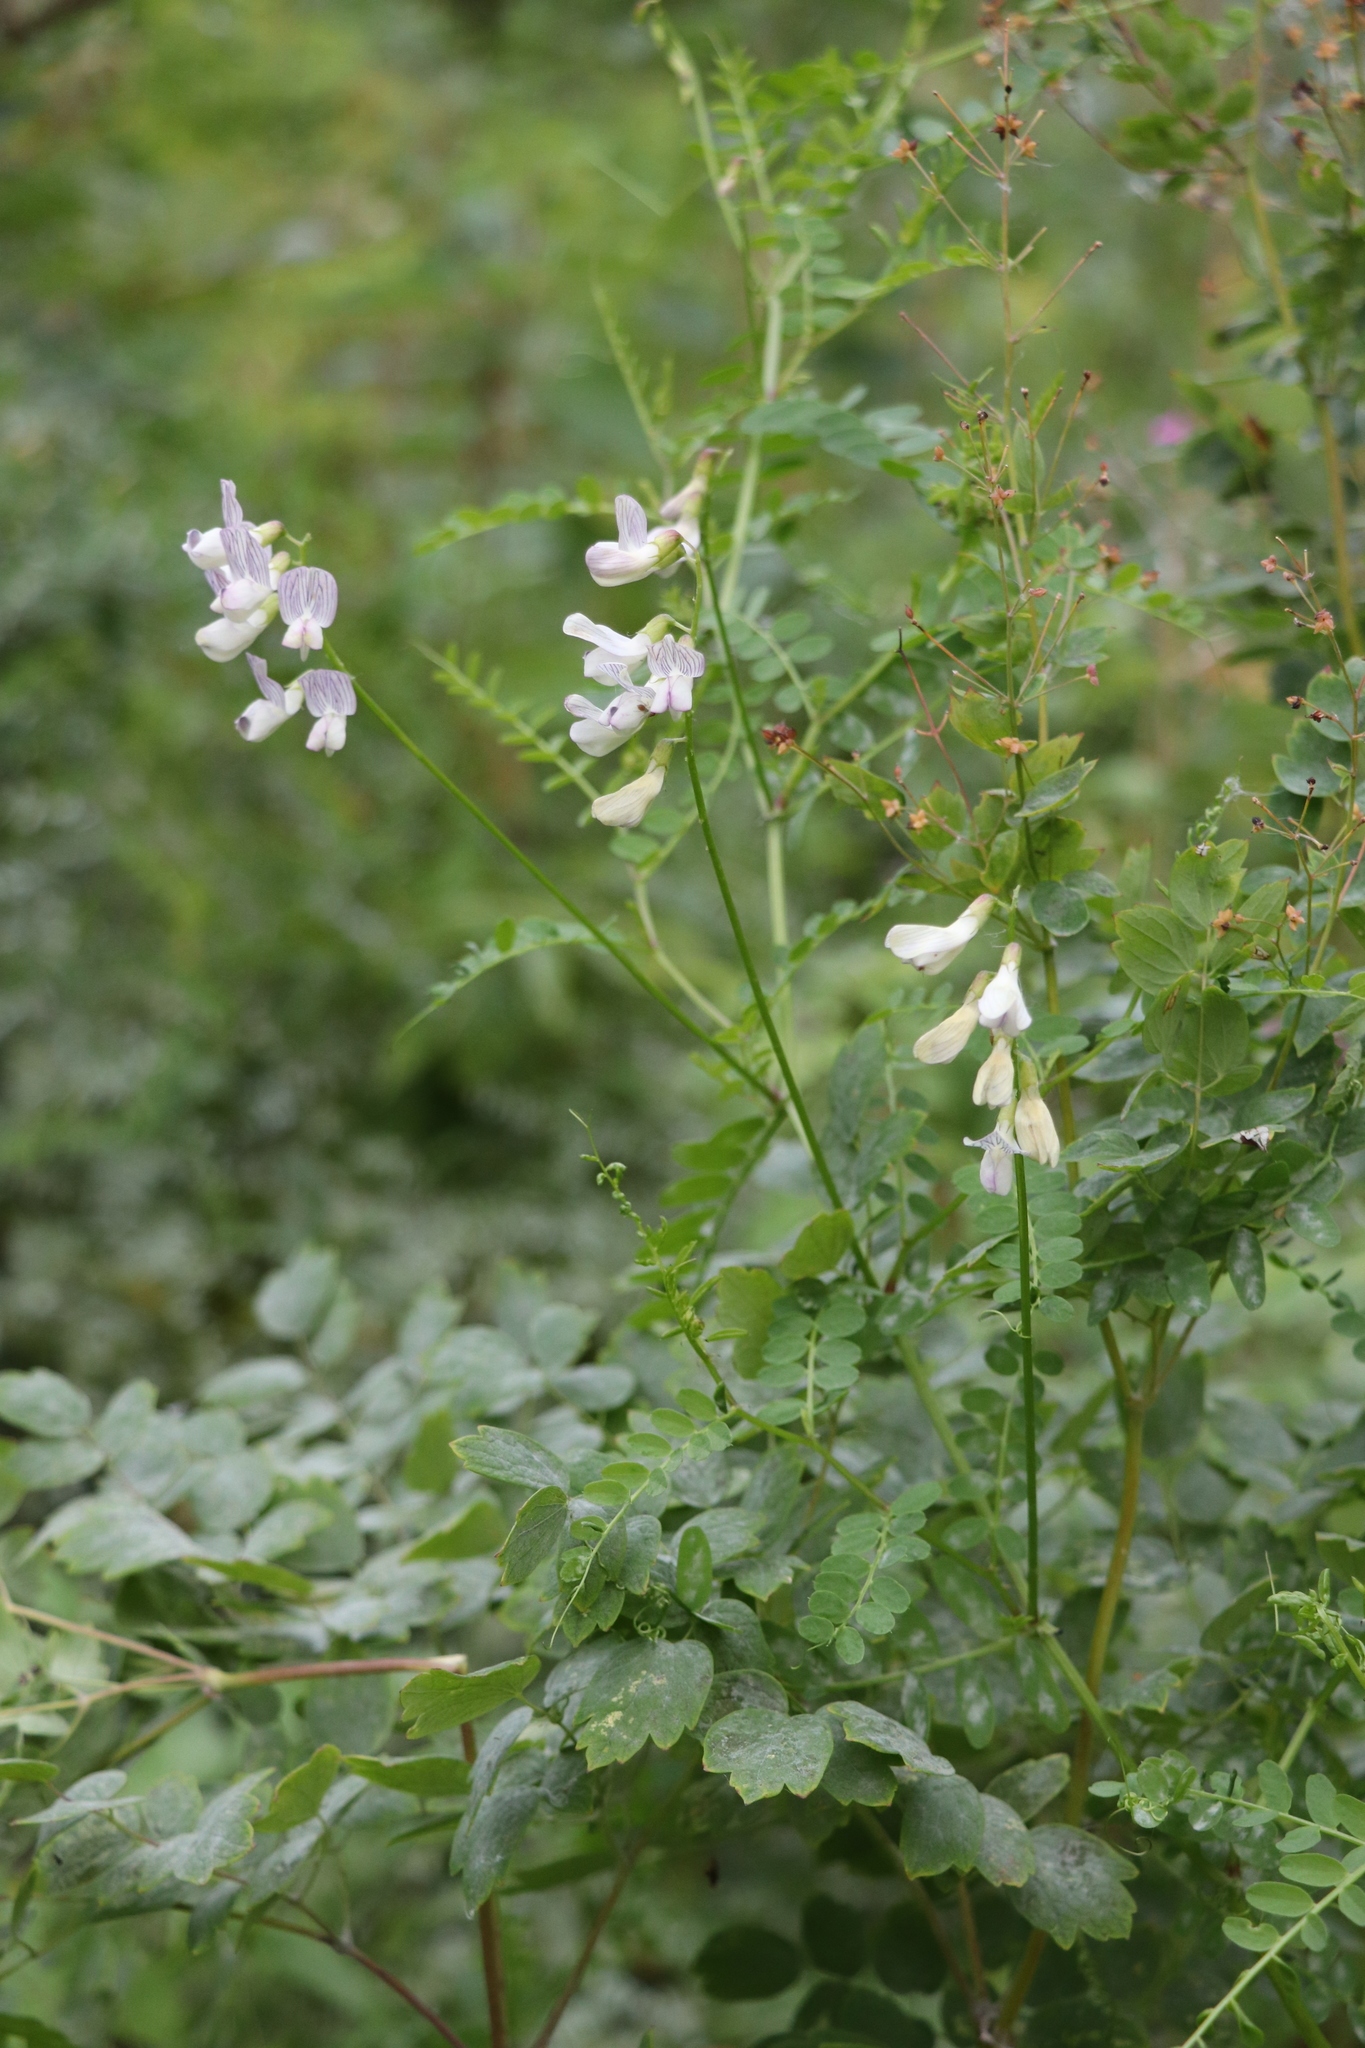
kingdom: Plantae
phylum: Tracheophyta
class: Magnoliopsida
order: Fabales
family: Fabaceae
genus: Vicia
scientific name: Vicia sylvatica
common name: Wood vetch
